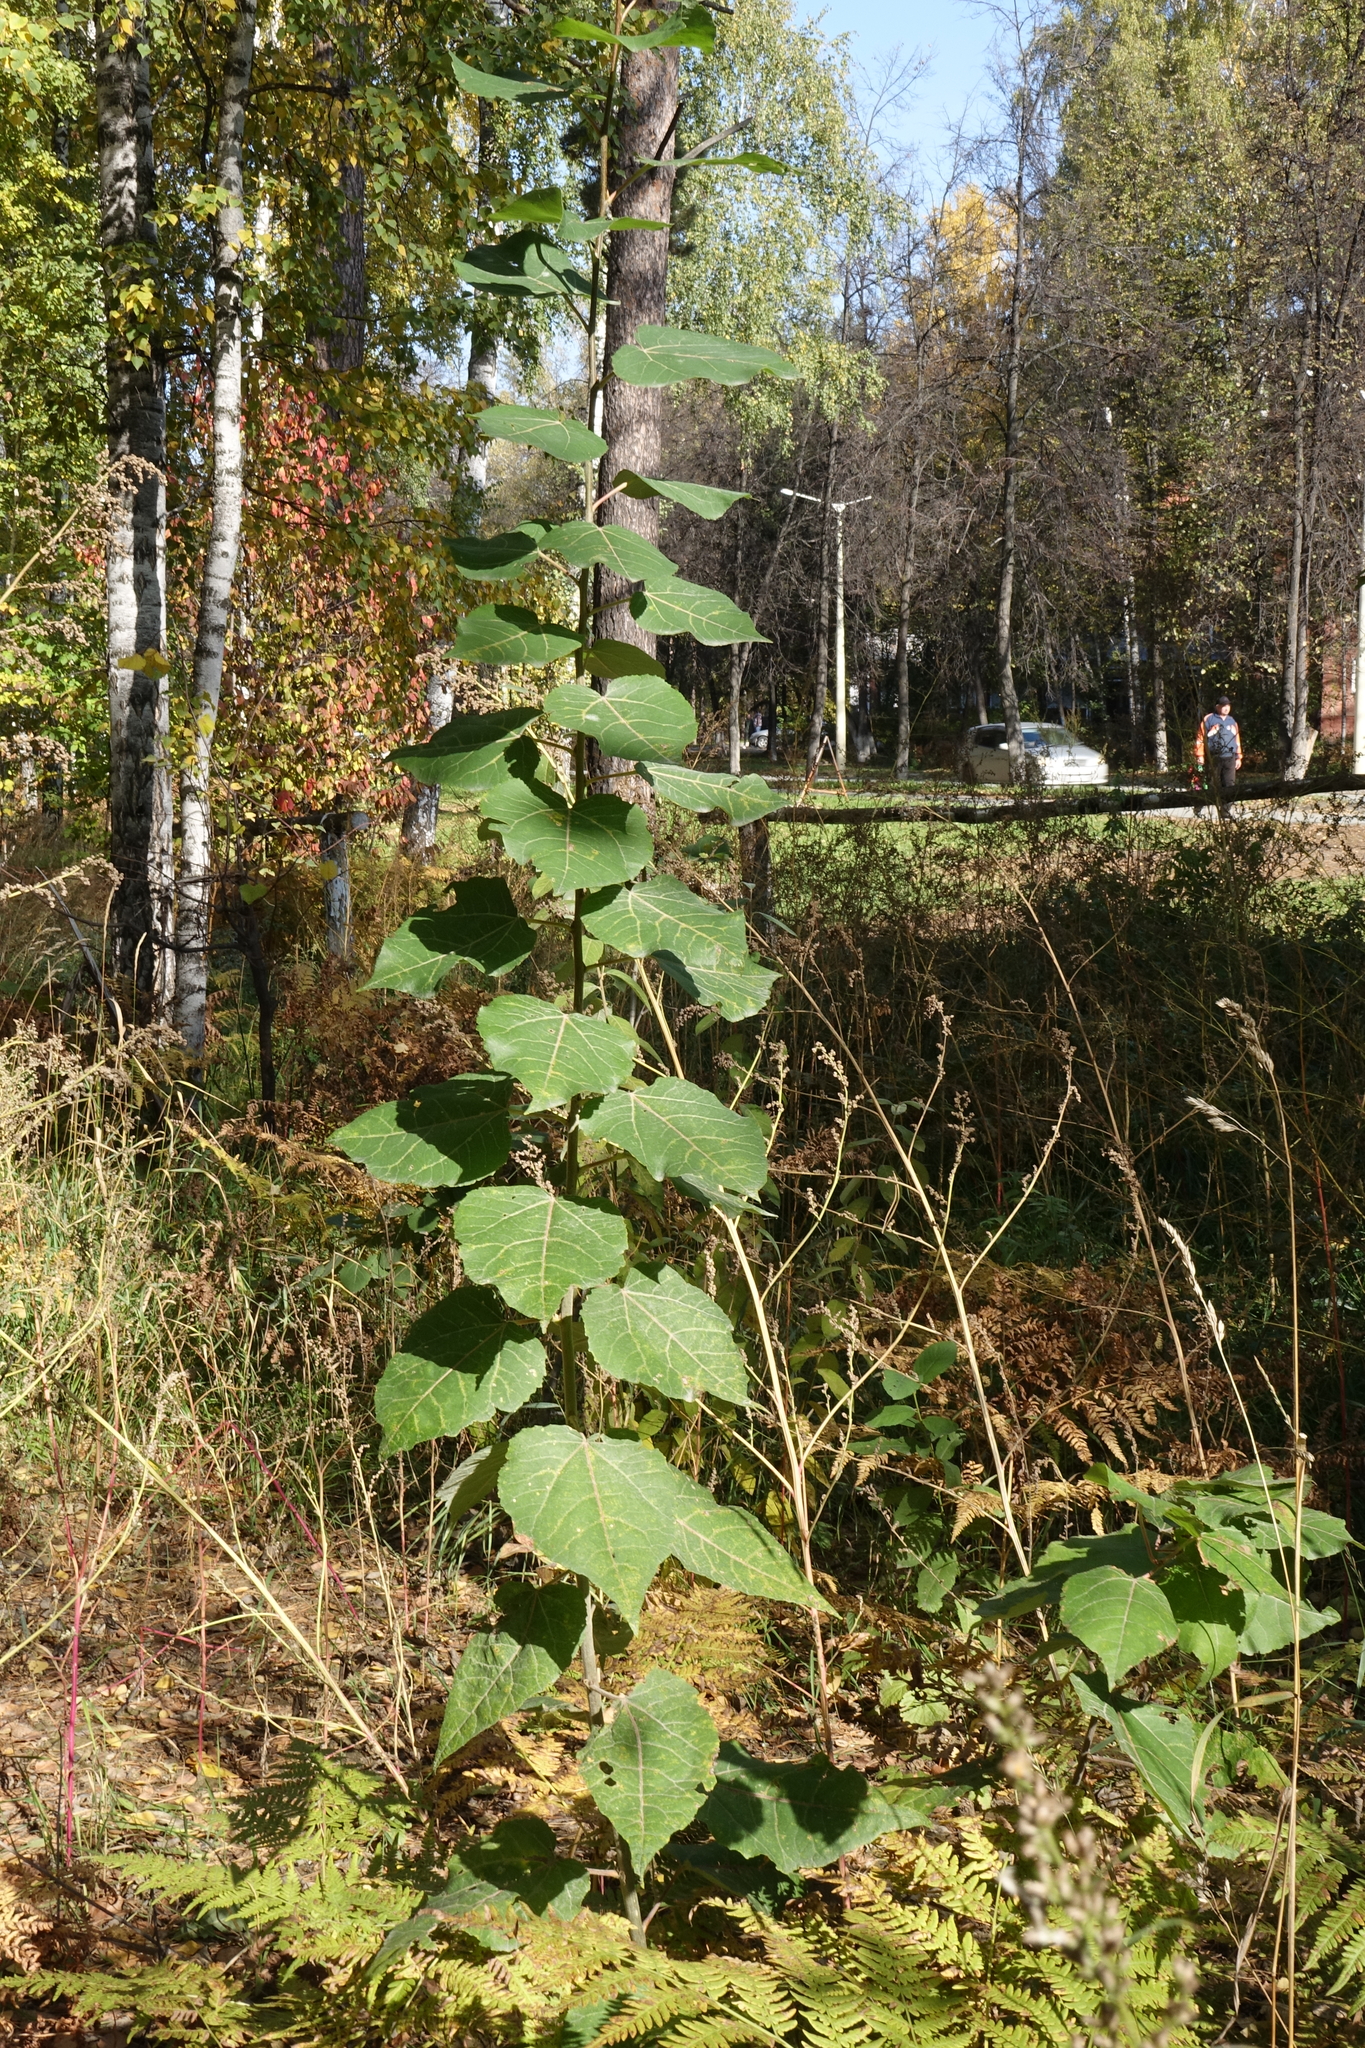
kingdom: Plantae
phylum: Tracheophyta
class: Magnoliopsida
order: Malpighiales
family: Salicaceae
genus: Populus
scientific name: Populus tremula
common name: European aspen
